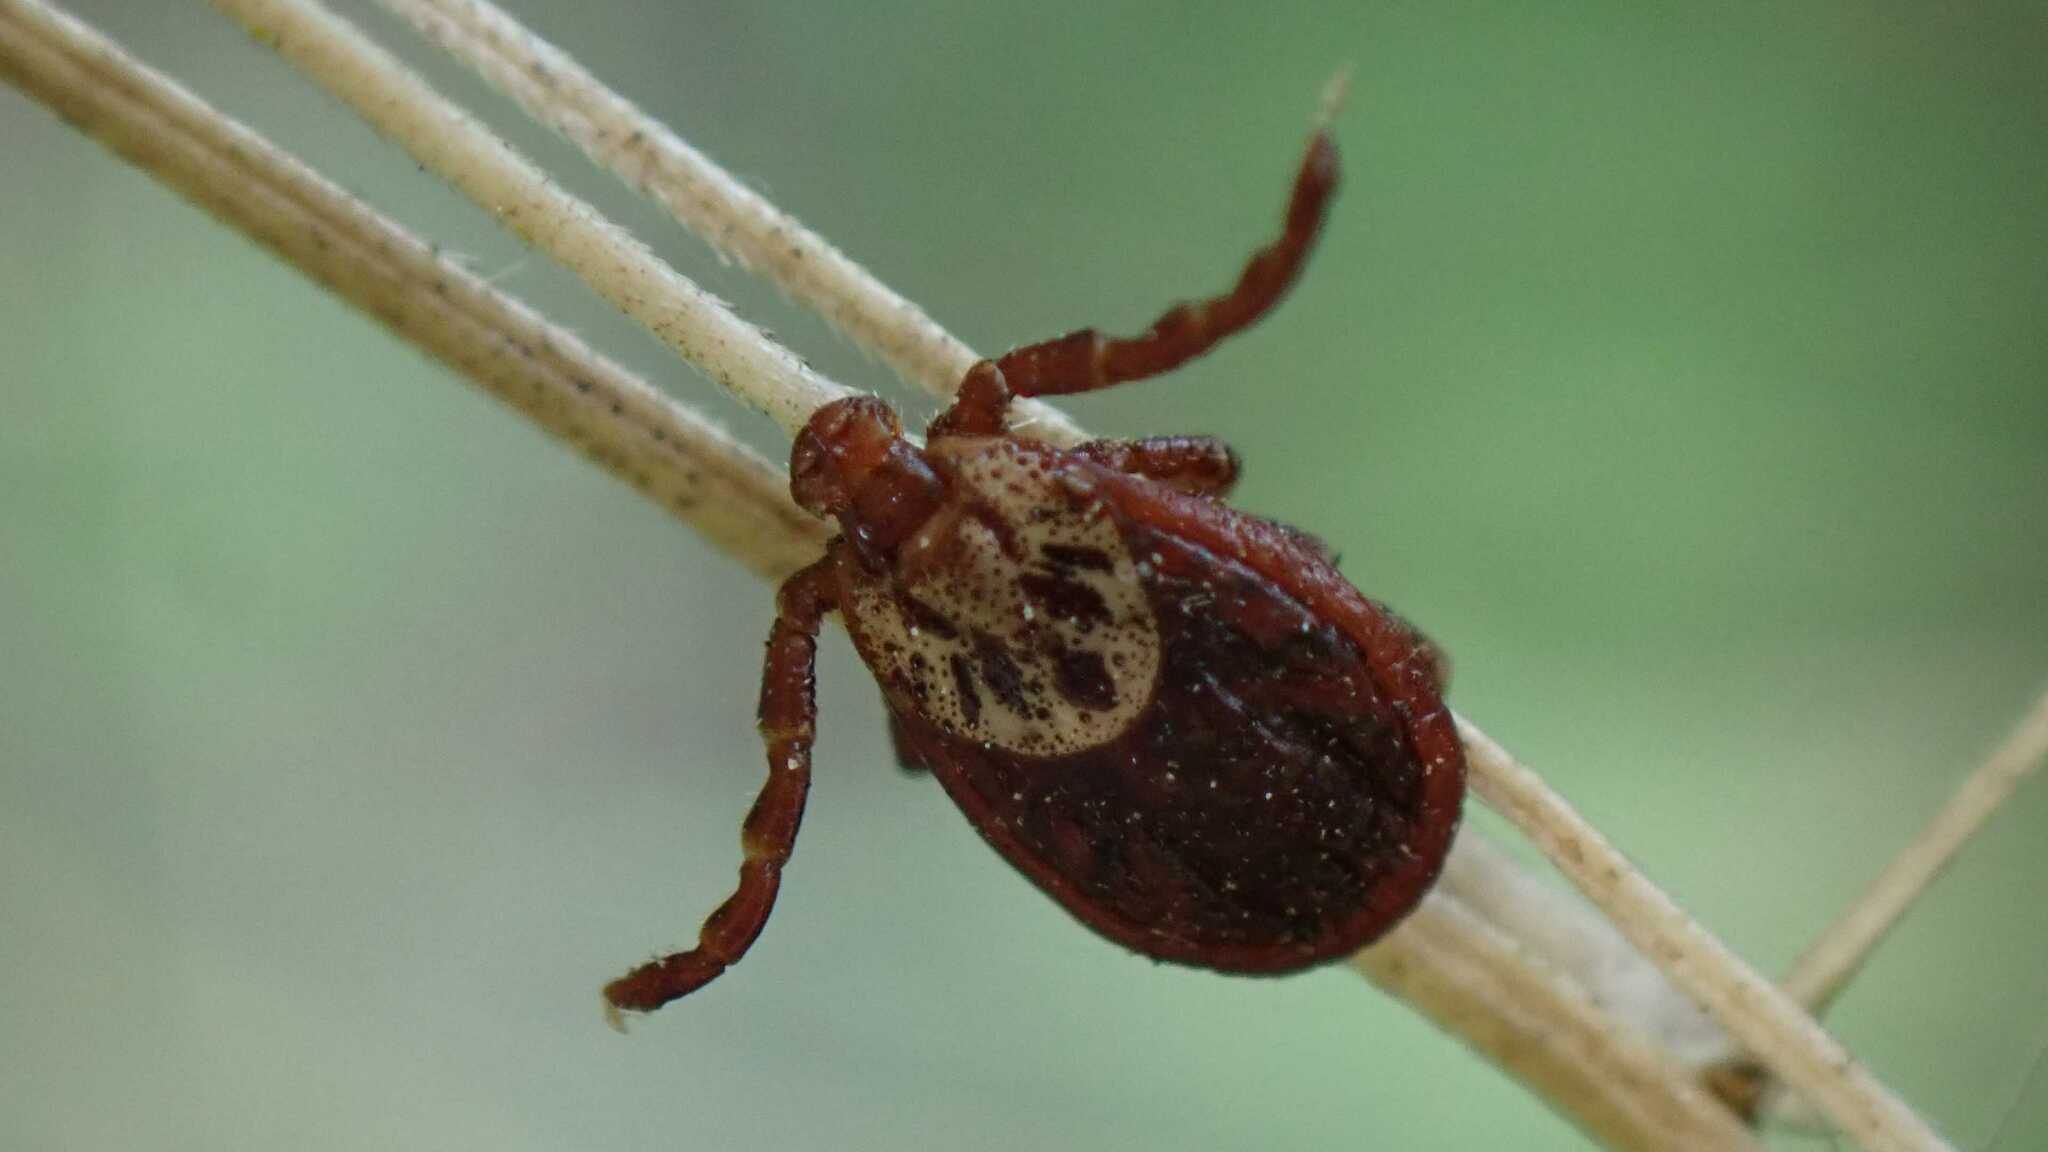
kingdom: Animalia
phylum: Arthropoda
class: Arachnida
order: Ixodida
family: Ixodidae
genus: Dermacentor
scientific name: Dermacentor reticulatus
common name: Ornate cow tick
